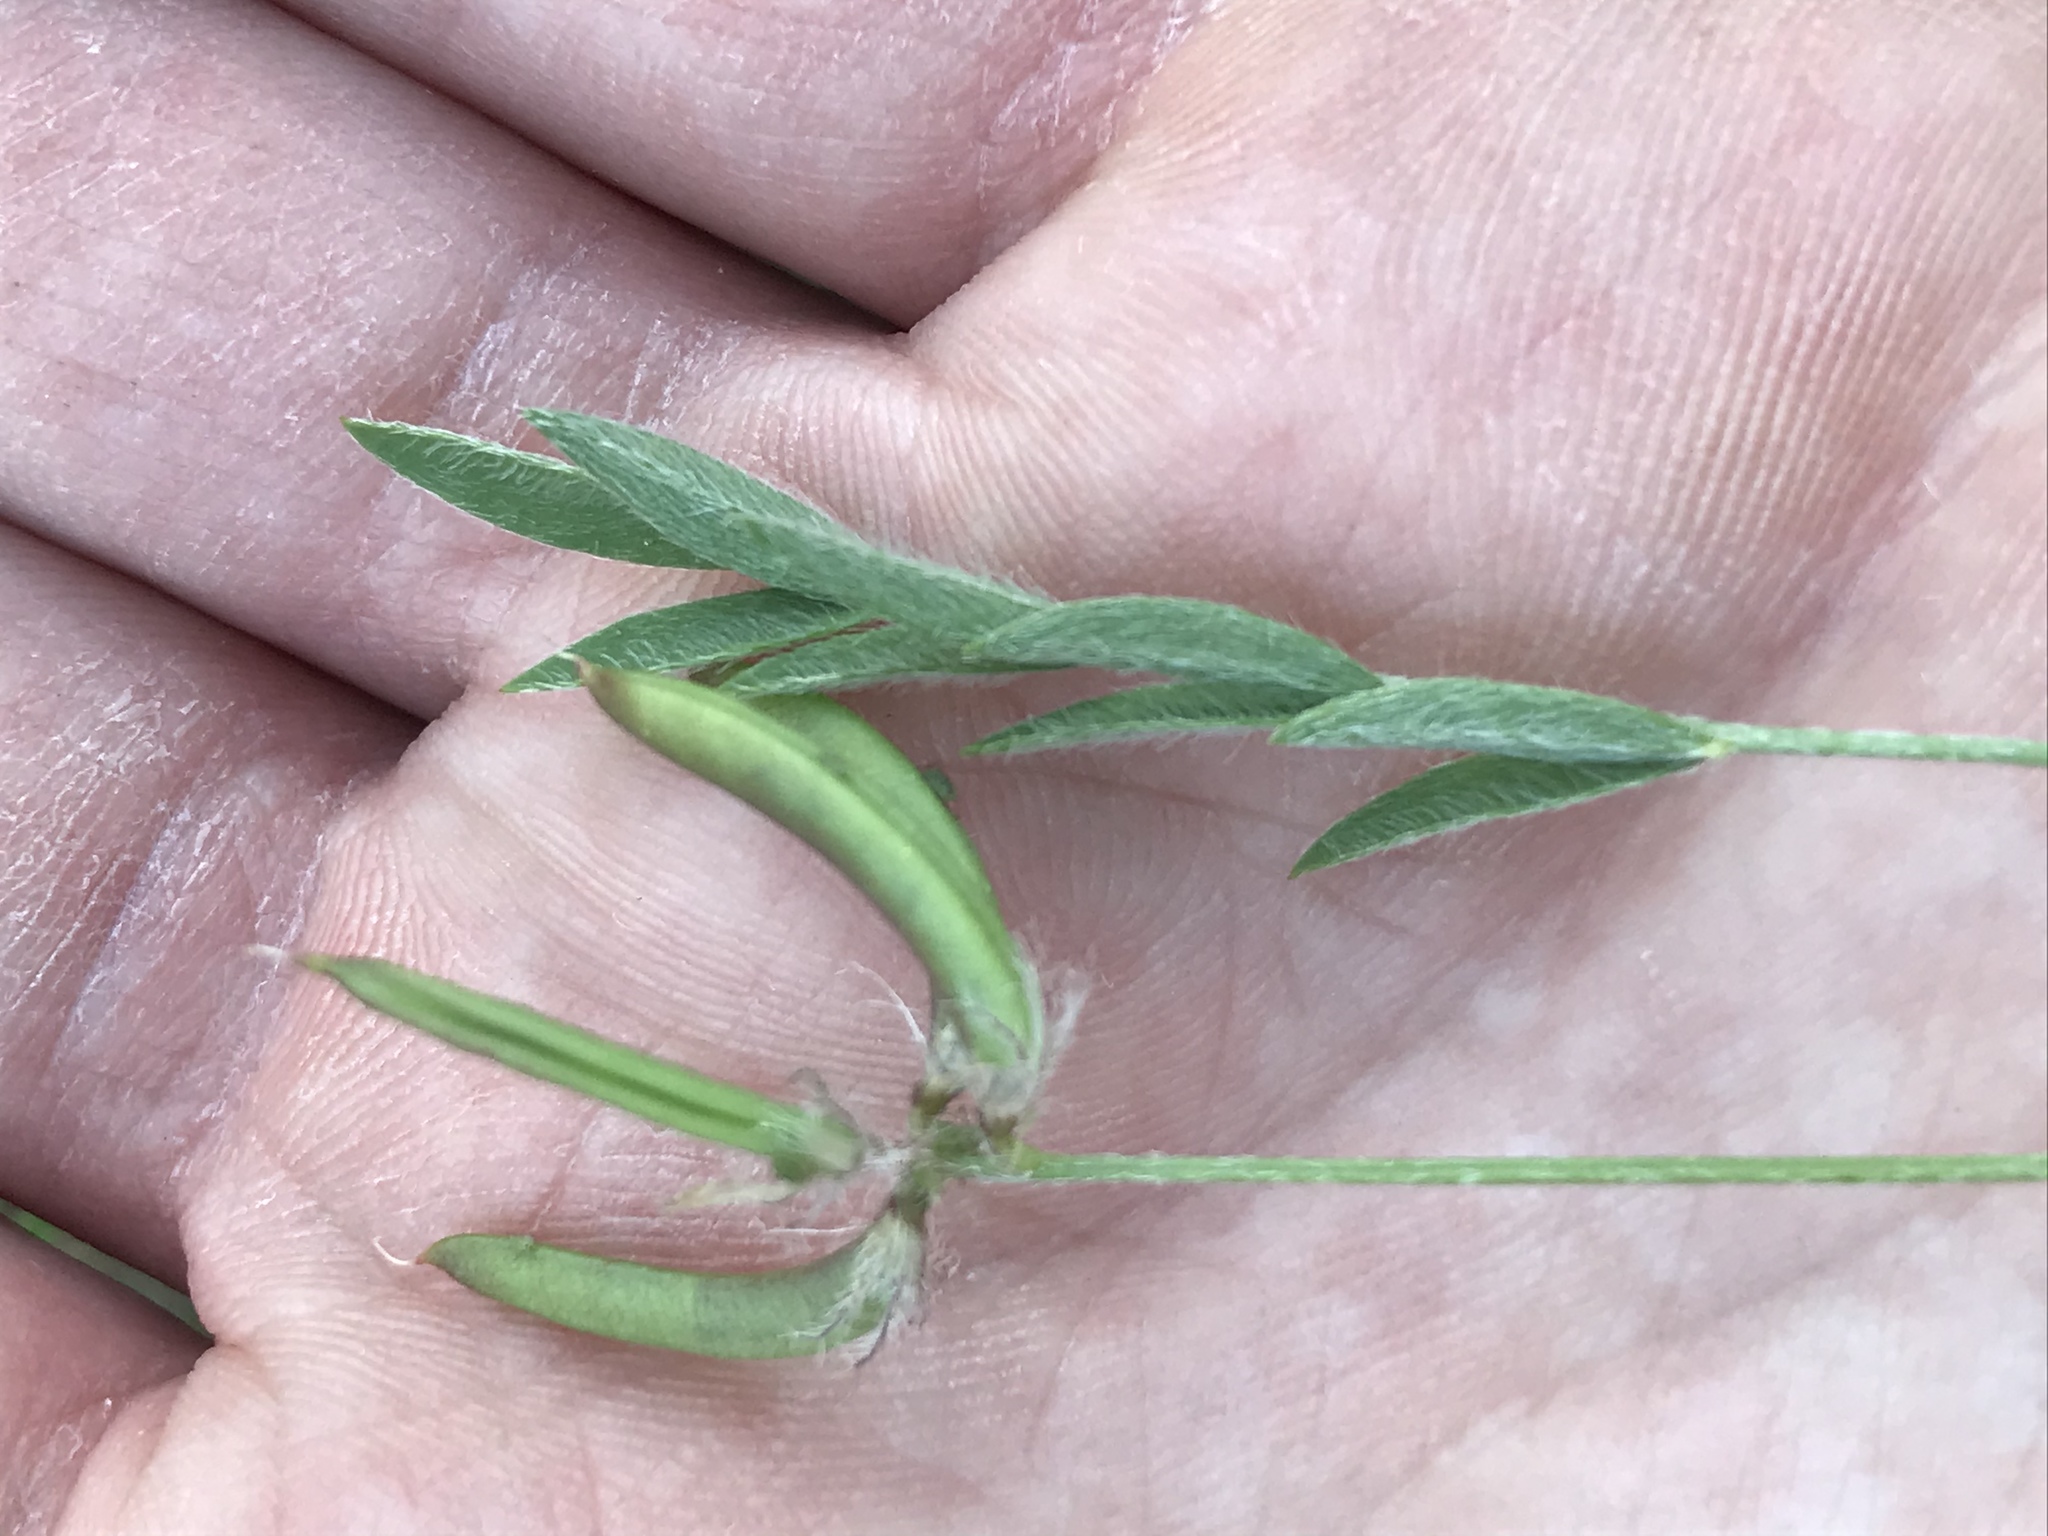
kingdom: Plantae
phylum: Tracheophyta
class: Magnoliopsida
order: Fabales
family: Fabaceae
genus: Astragalus
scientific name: Astragalus nuttallianus
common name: Smallflowered milkvetch
